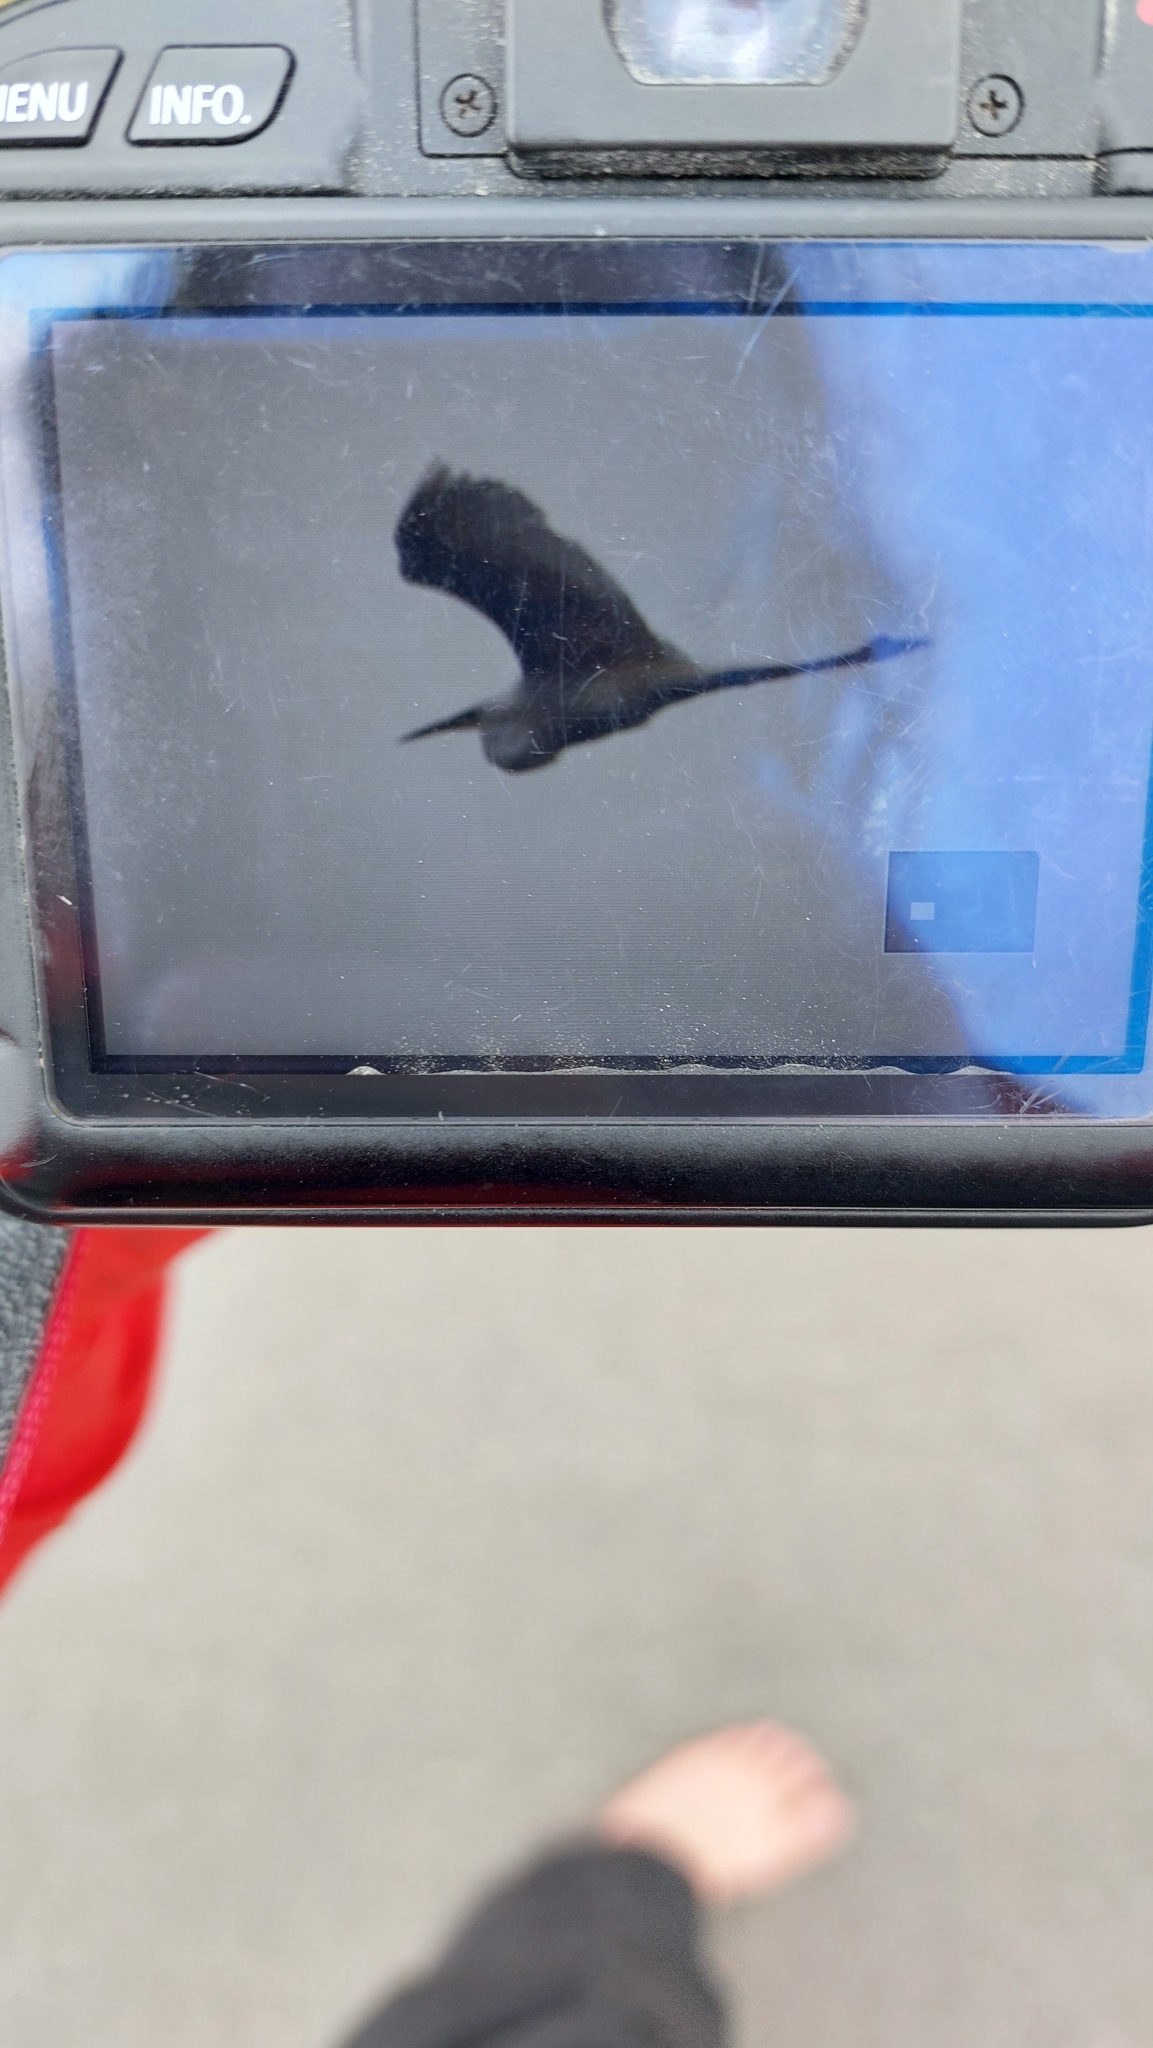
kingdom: Animalia
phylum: Chordata
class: Aves
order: Pelecaniformes
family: Ardeidae
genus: Ardea
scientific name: Ardea alba
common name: Great egret
